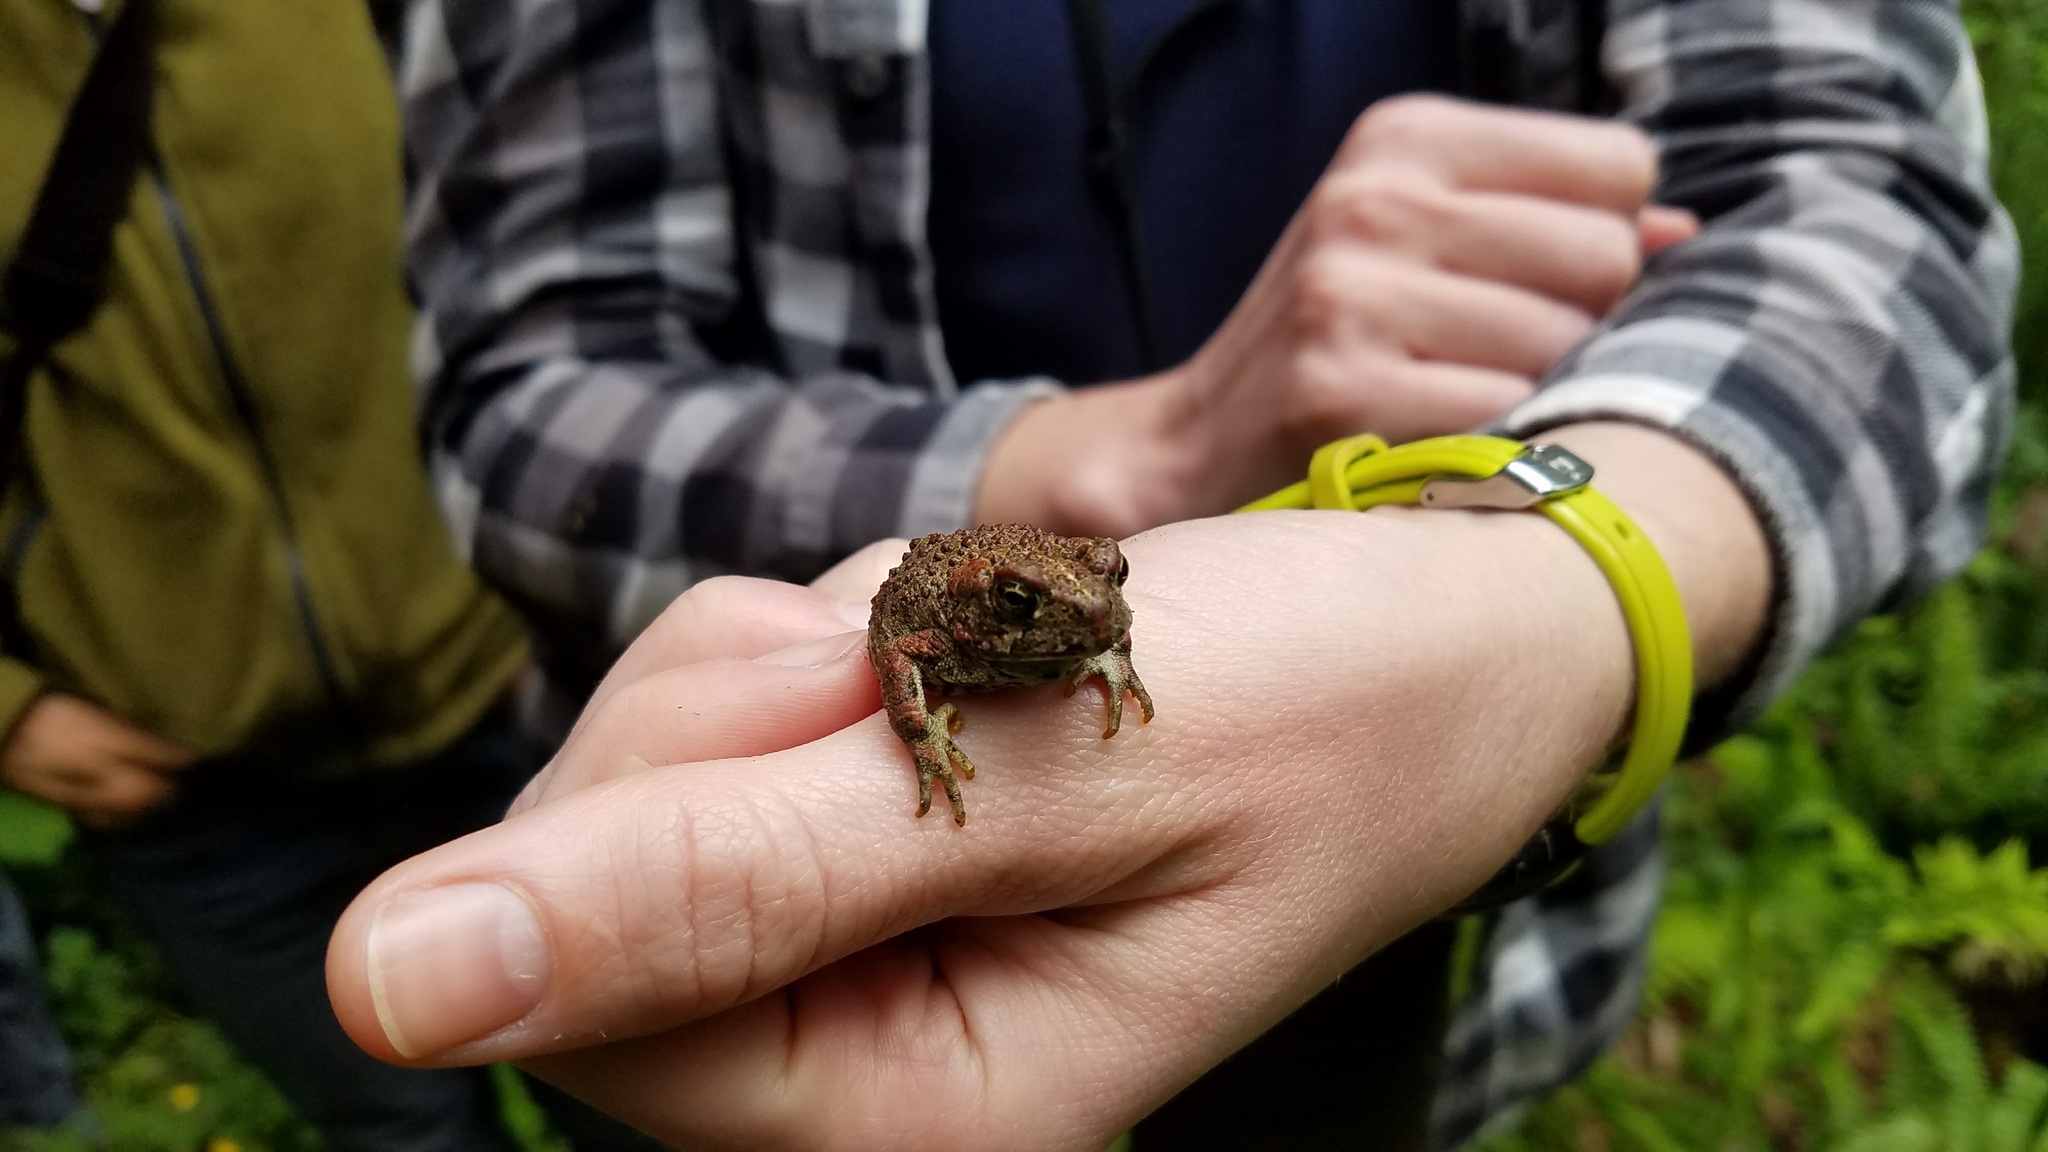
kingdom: Animalia
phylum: Chordata
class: Amphibia
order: Anura
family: Bufonidae
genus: Anaxyrus
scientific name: Anaxyrus boreas
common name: Western toad
